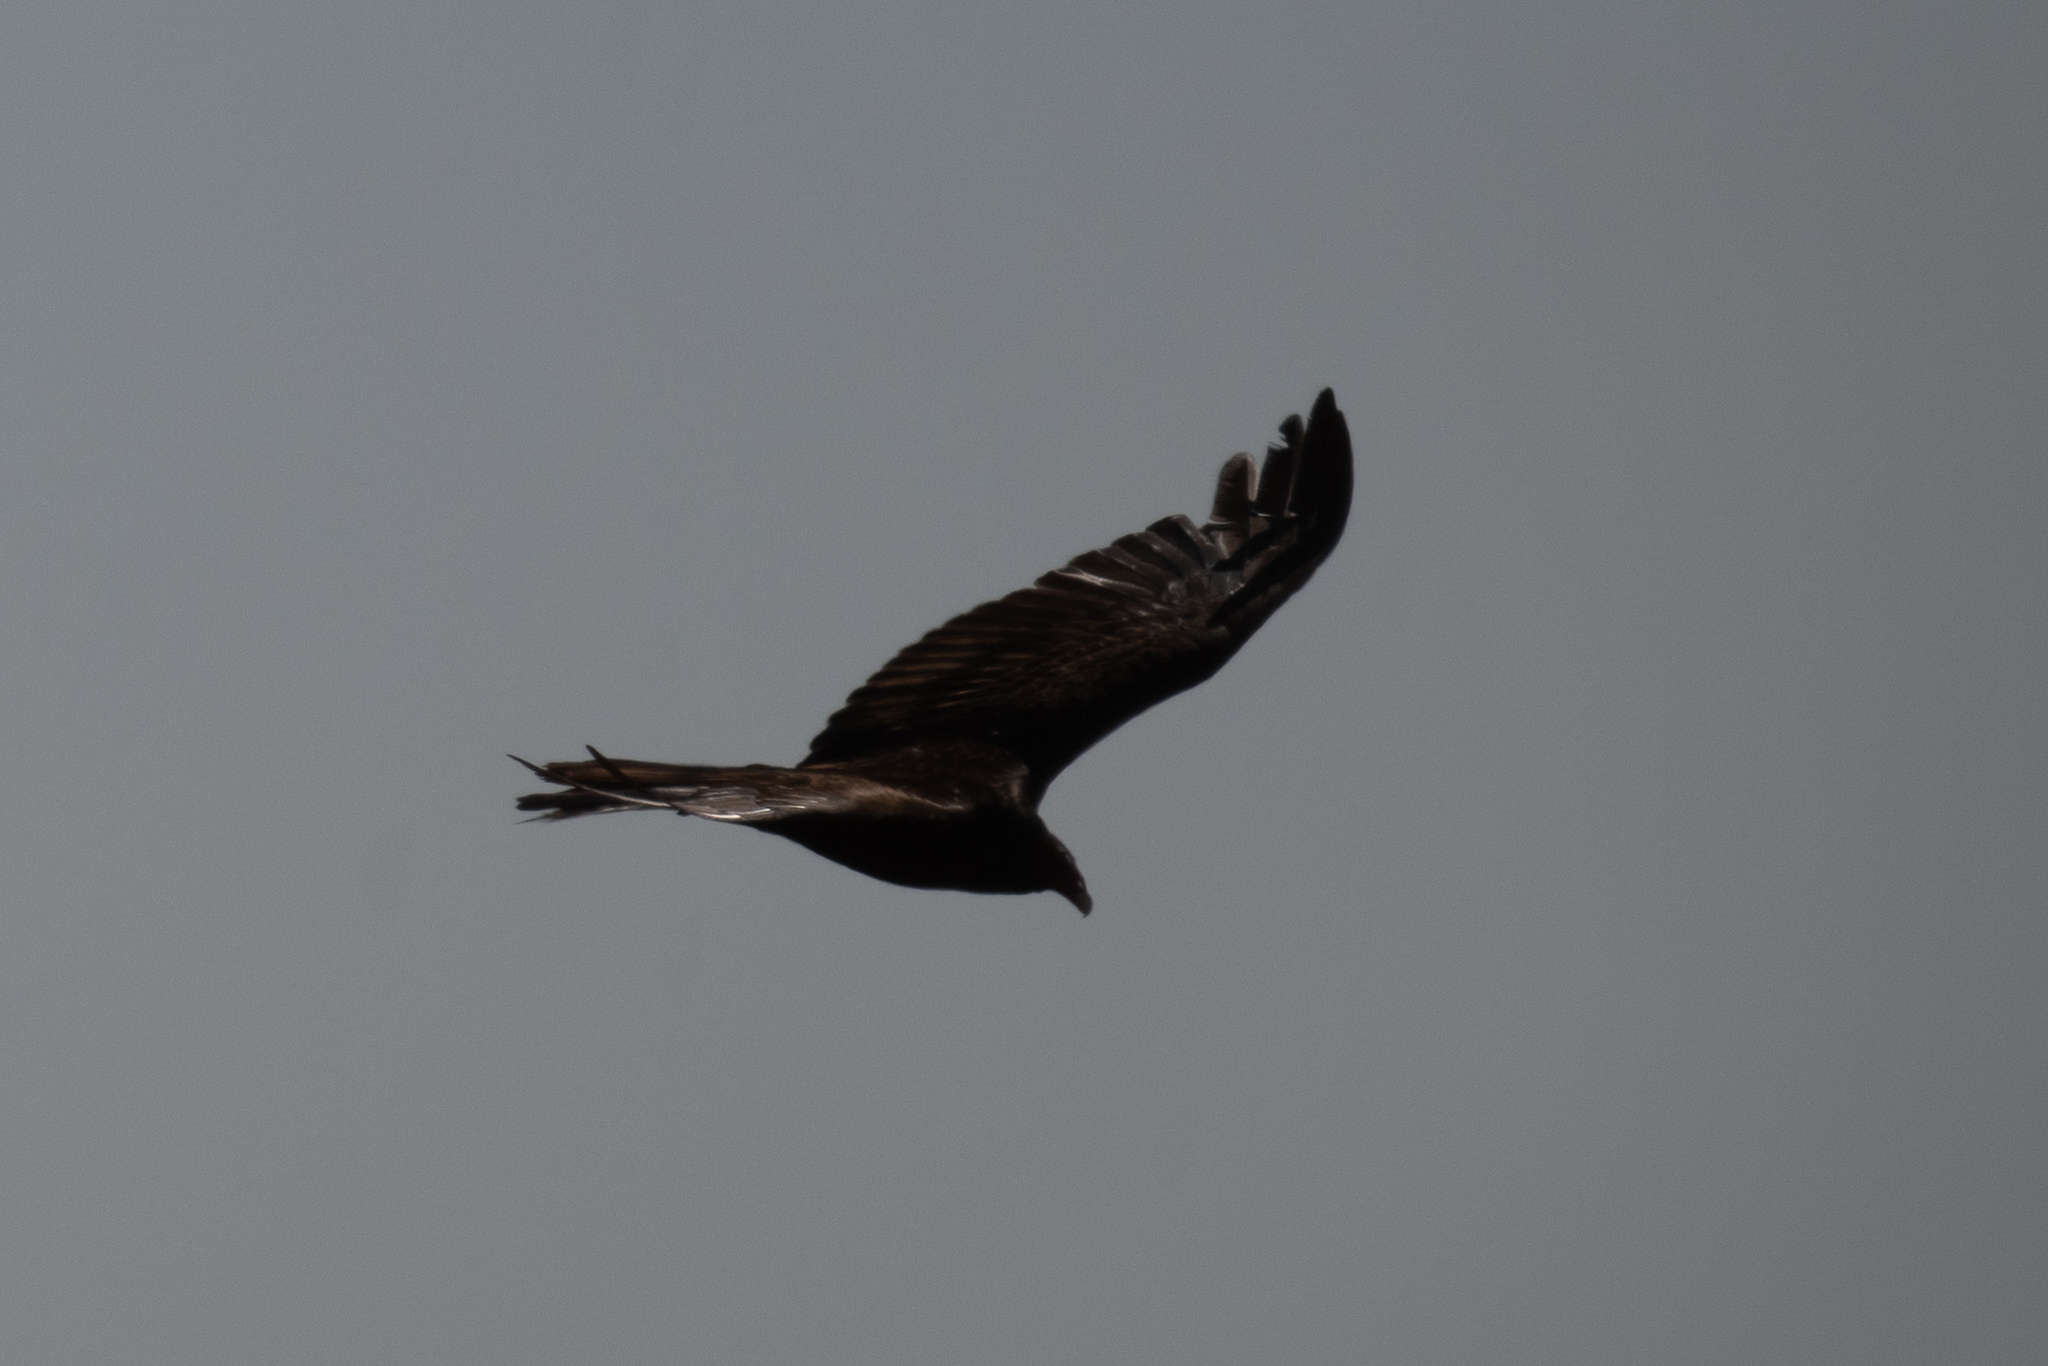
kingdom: Animalia
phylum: Chordata
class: Aves
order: Accipitriformes
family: Cathartidae
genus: Cathartes
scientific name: Cathartes aura
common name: Turkey vulture
